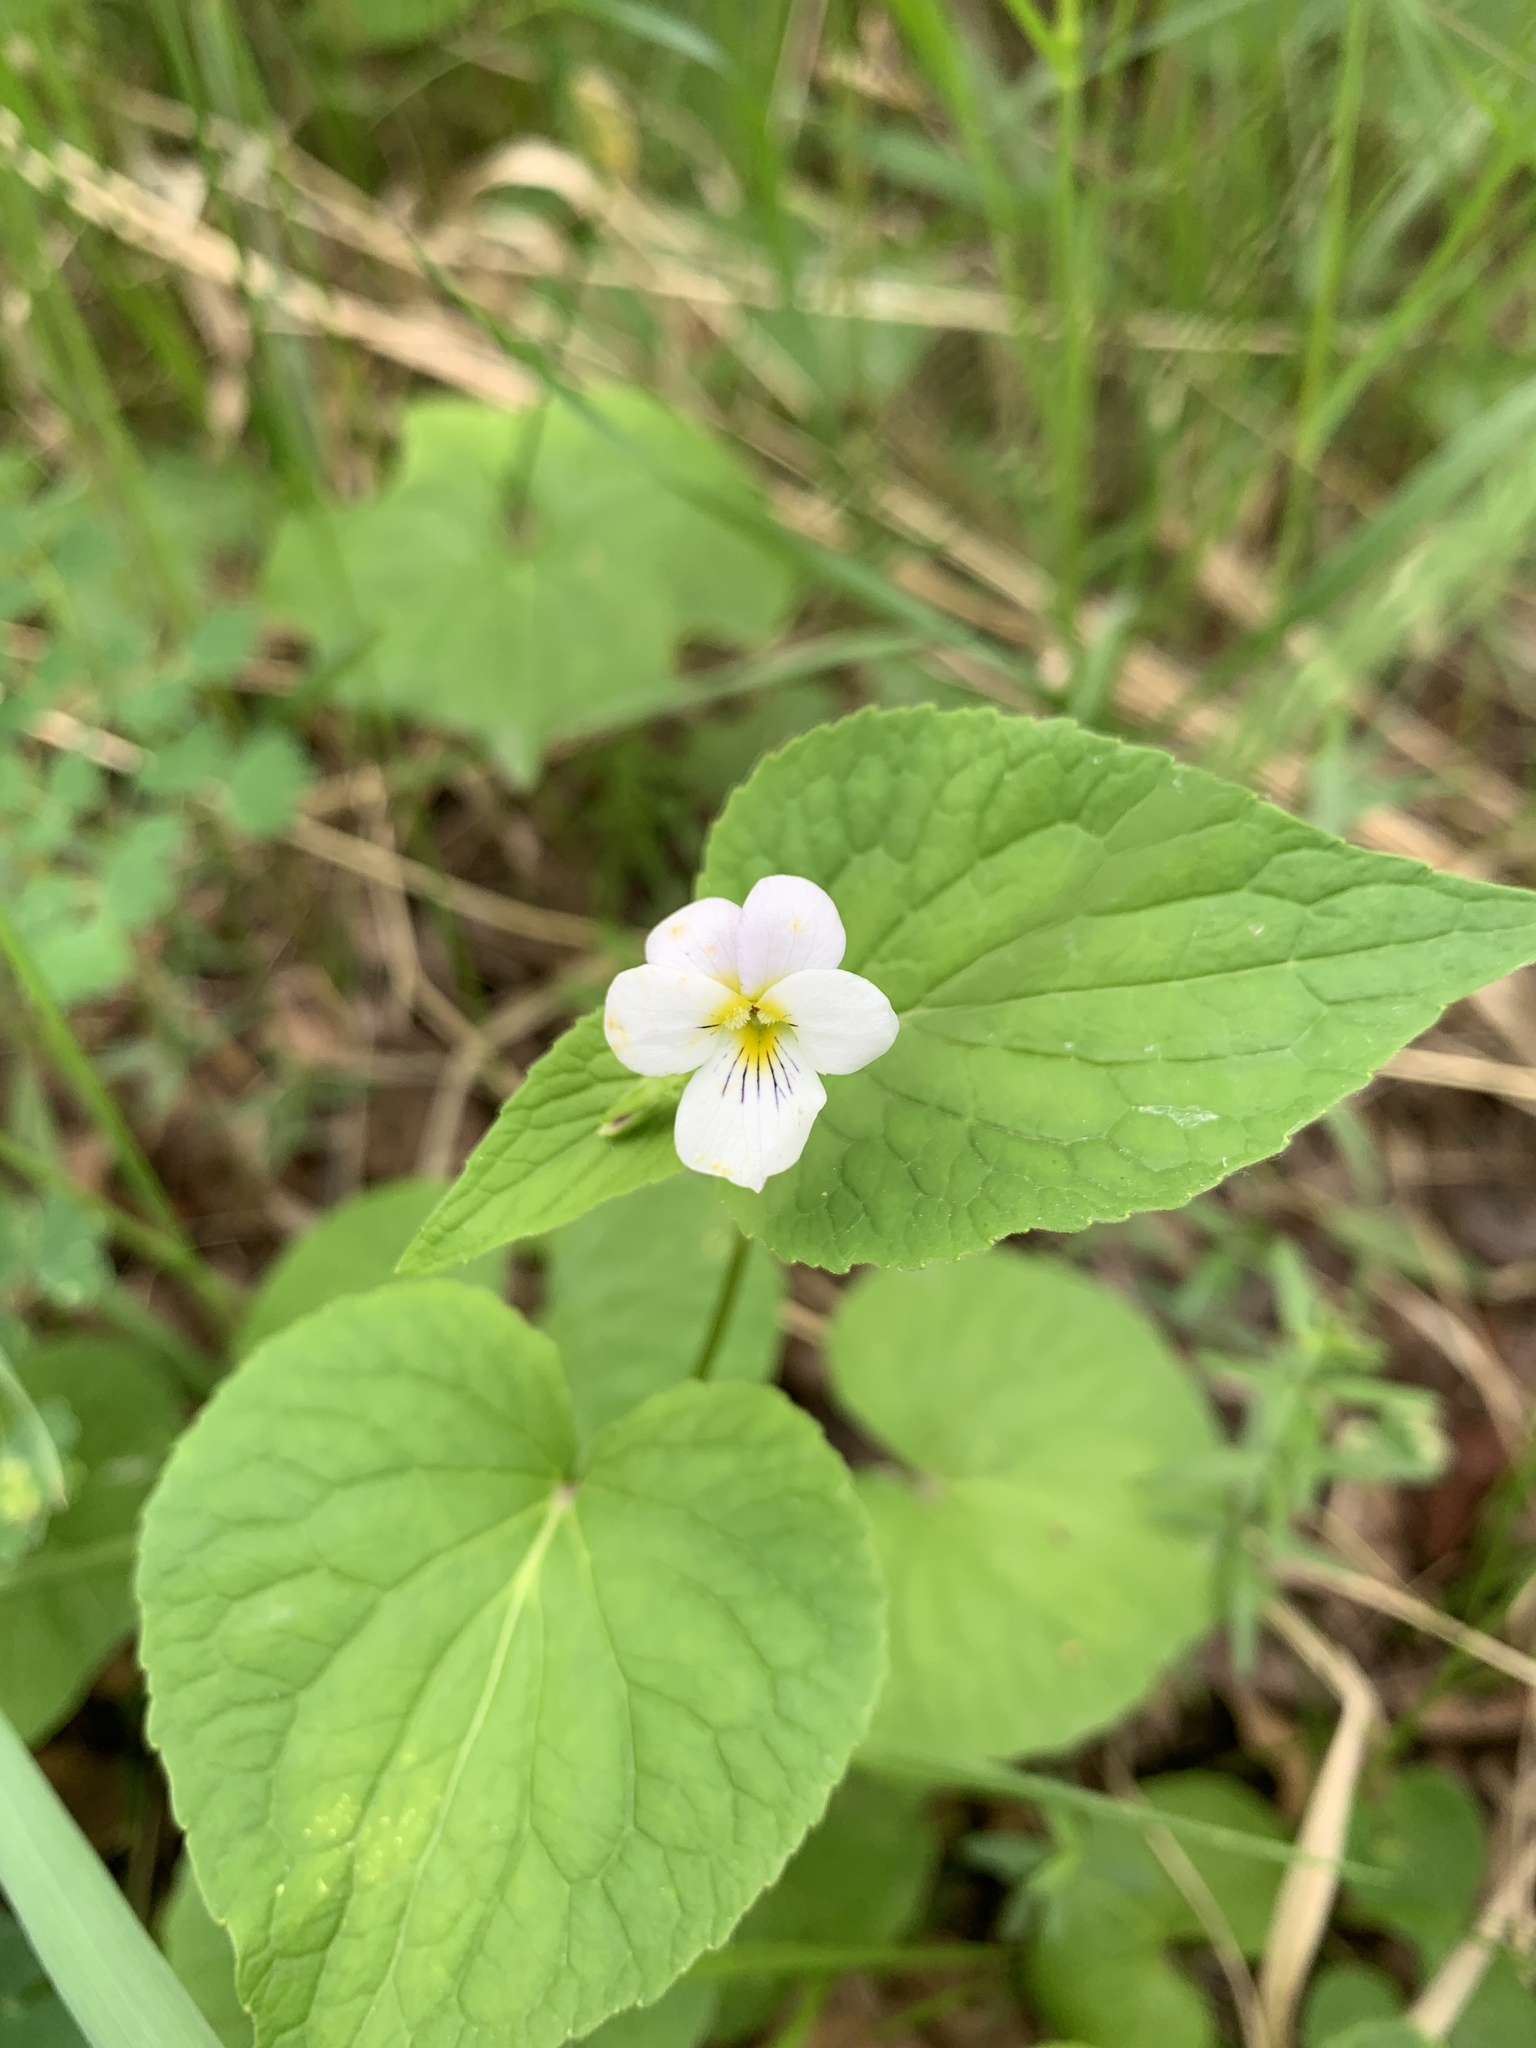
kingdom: Plantae
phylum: Tracheophyta
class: Magnoliopsida
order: Malpighiales
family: Violaceae
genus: Viola
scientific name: Viola canadensis
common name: Canada violet
